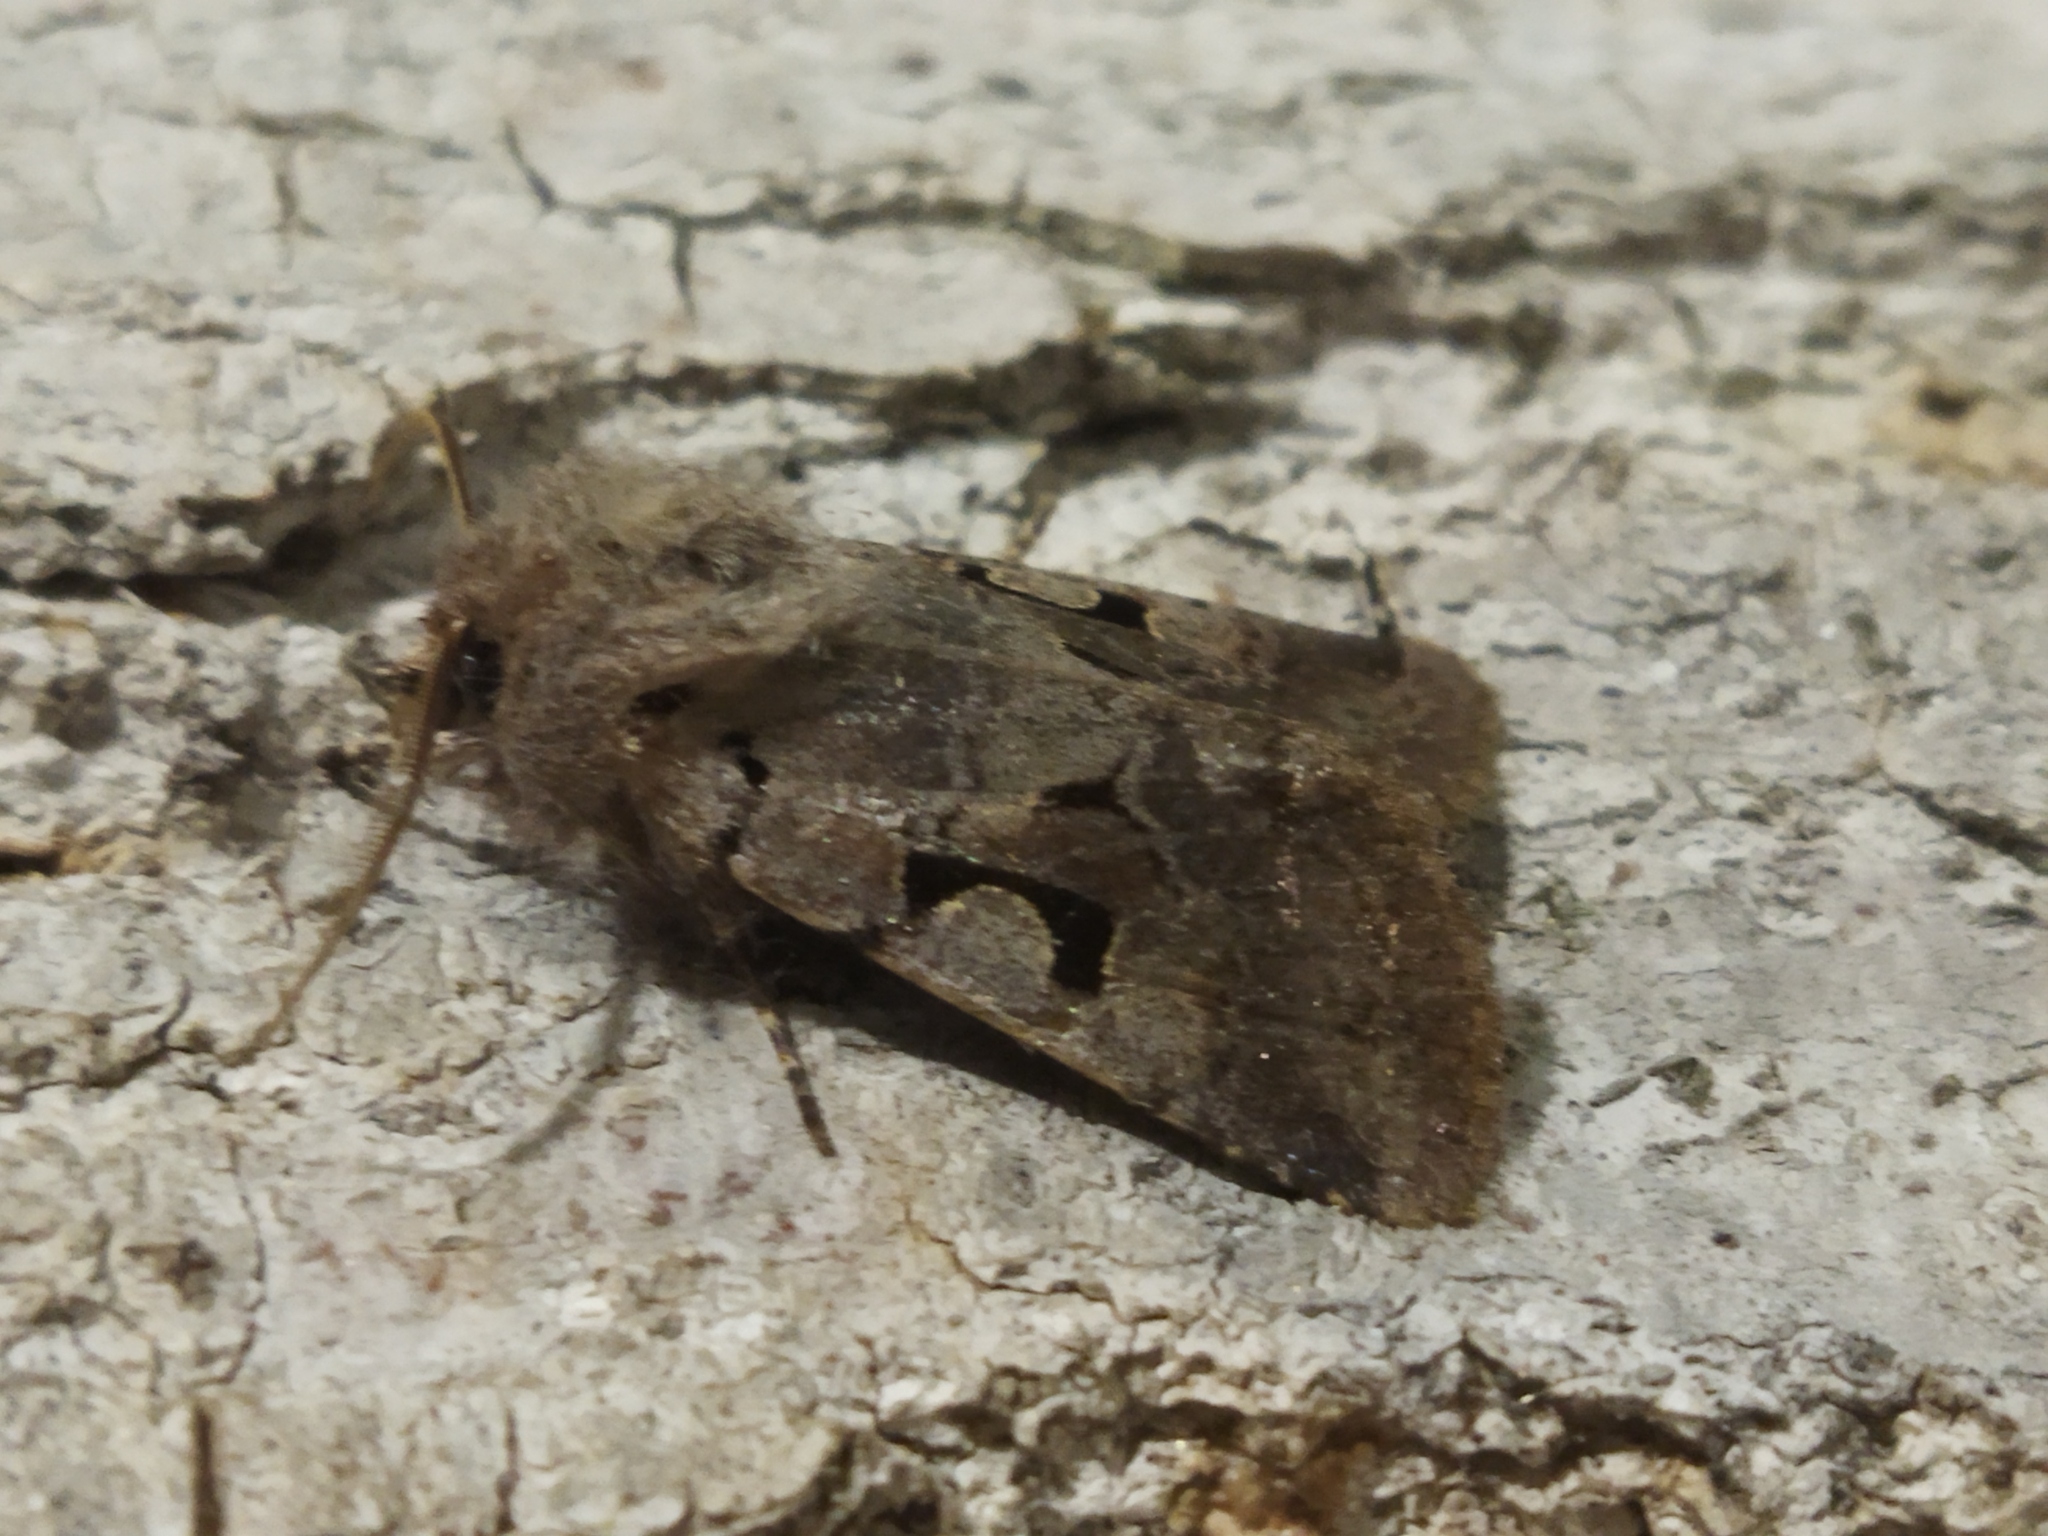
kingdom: Animalia
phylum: Arthropoda
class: Insecta
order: Lepidoptera
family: Noctuidae
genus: Orthosia
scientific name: Orthosia gothica
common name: Hebrew character
